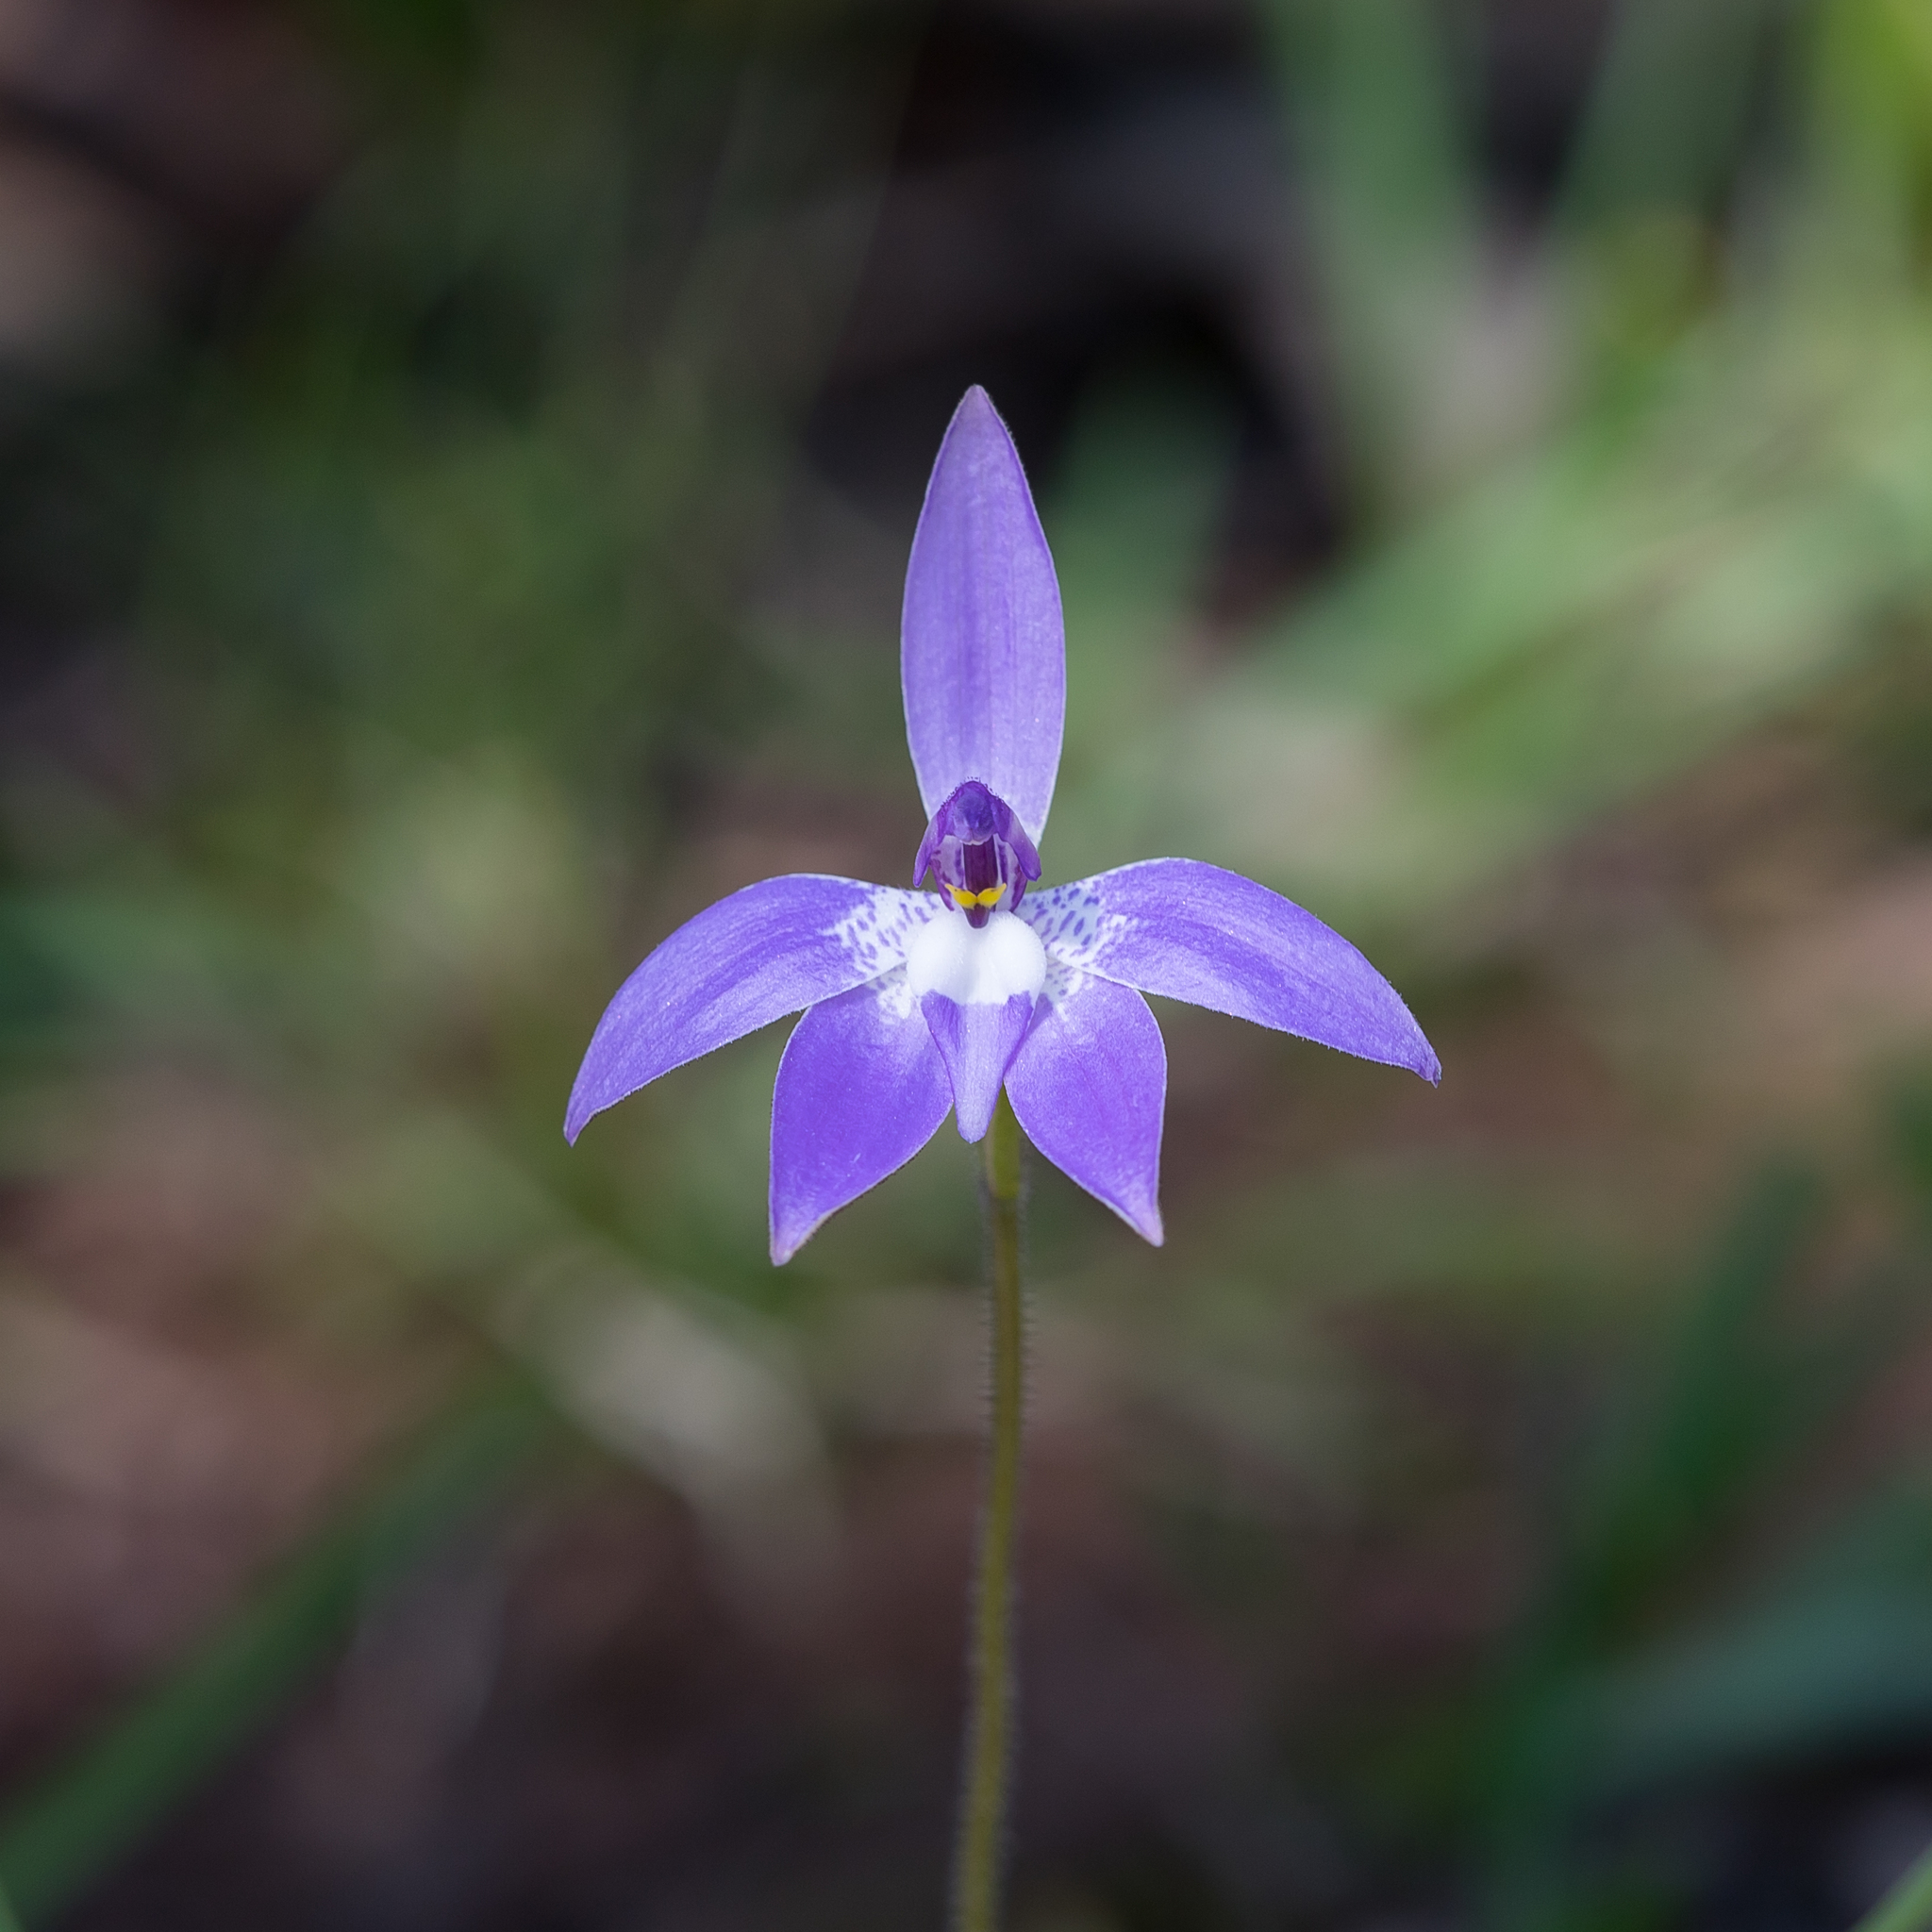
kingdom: Plantae
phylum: Tracheophyta
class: Liliopsida
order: Asparagales
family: Orchidaceae
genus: Caladenia
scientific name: Caladenia major
